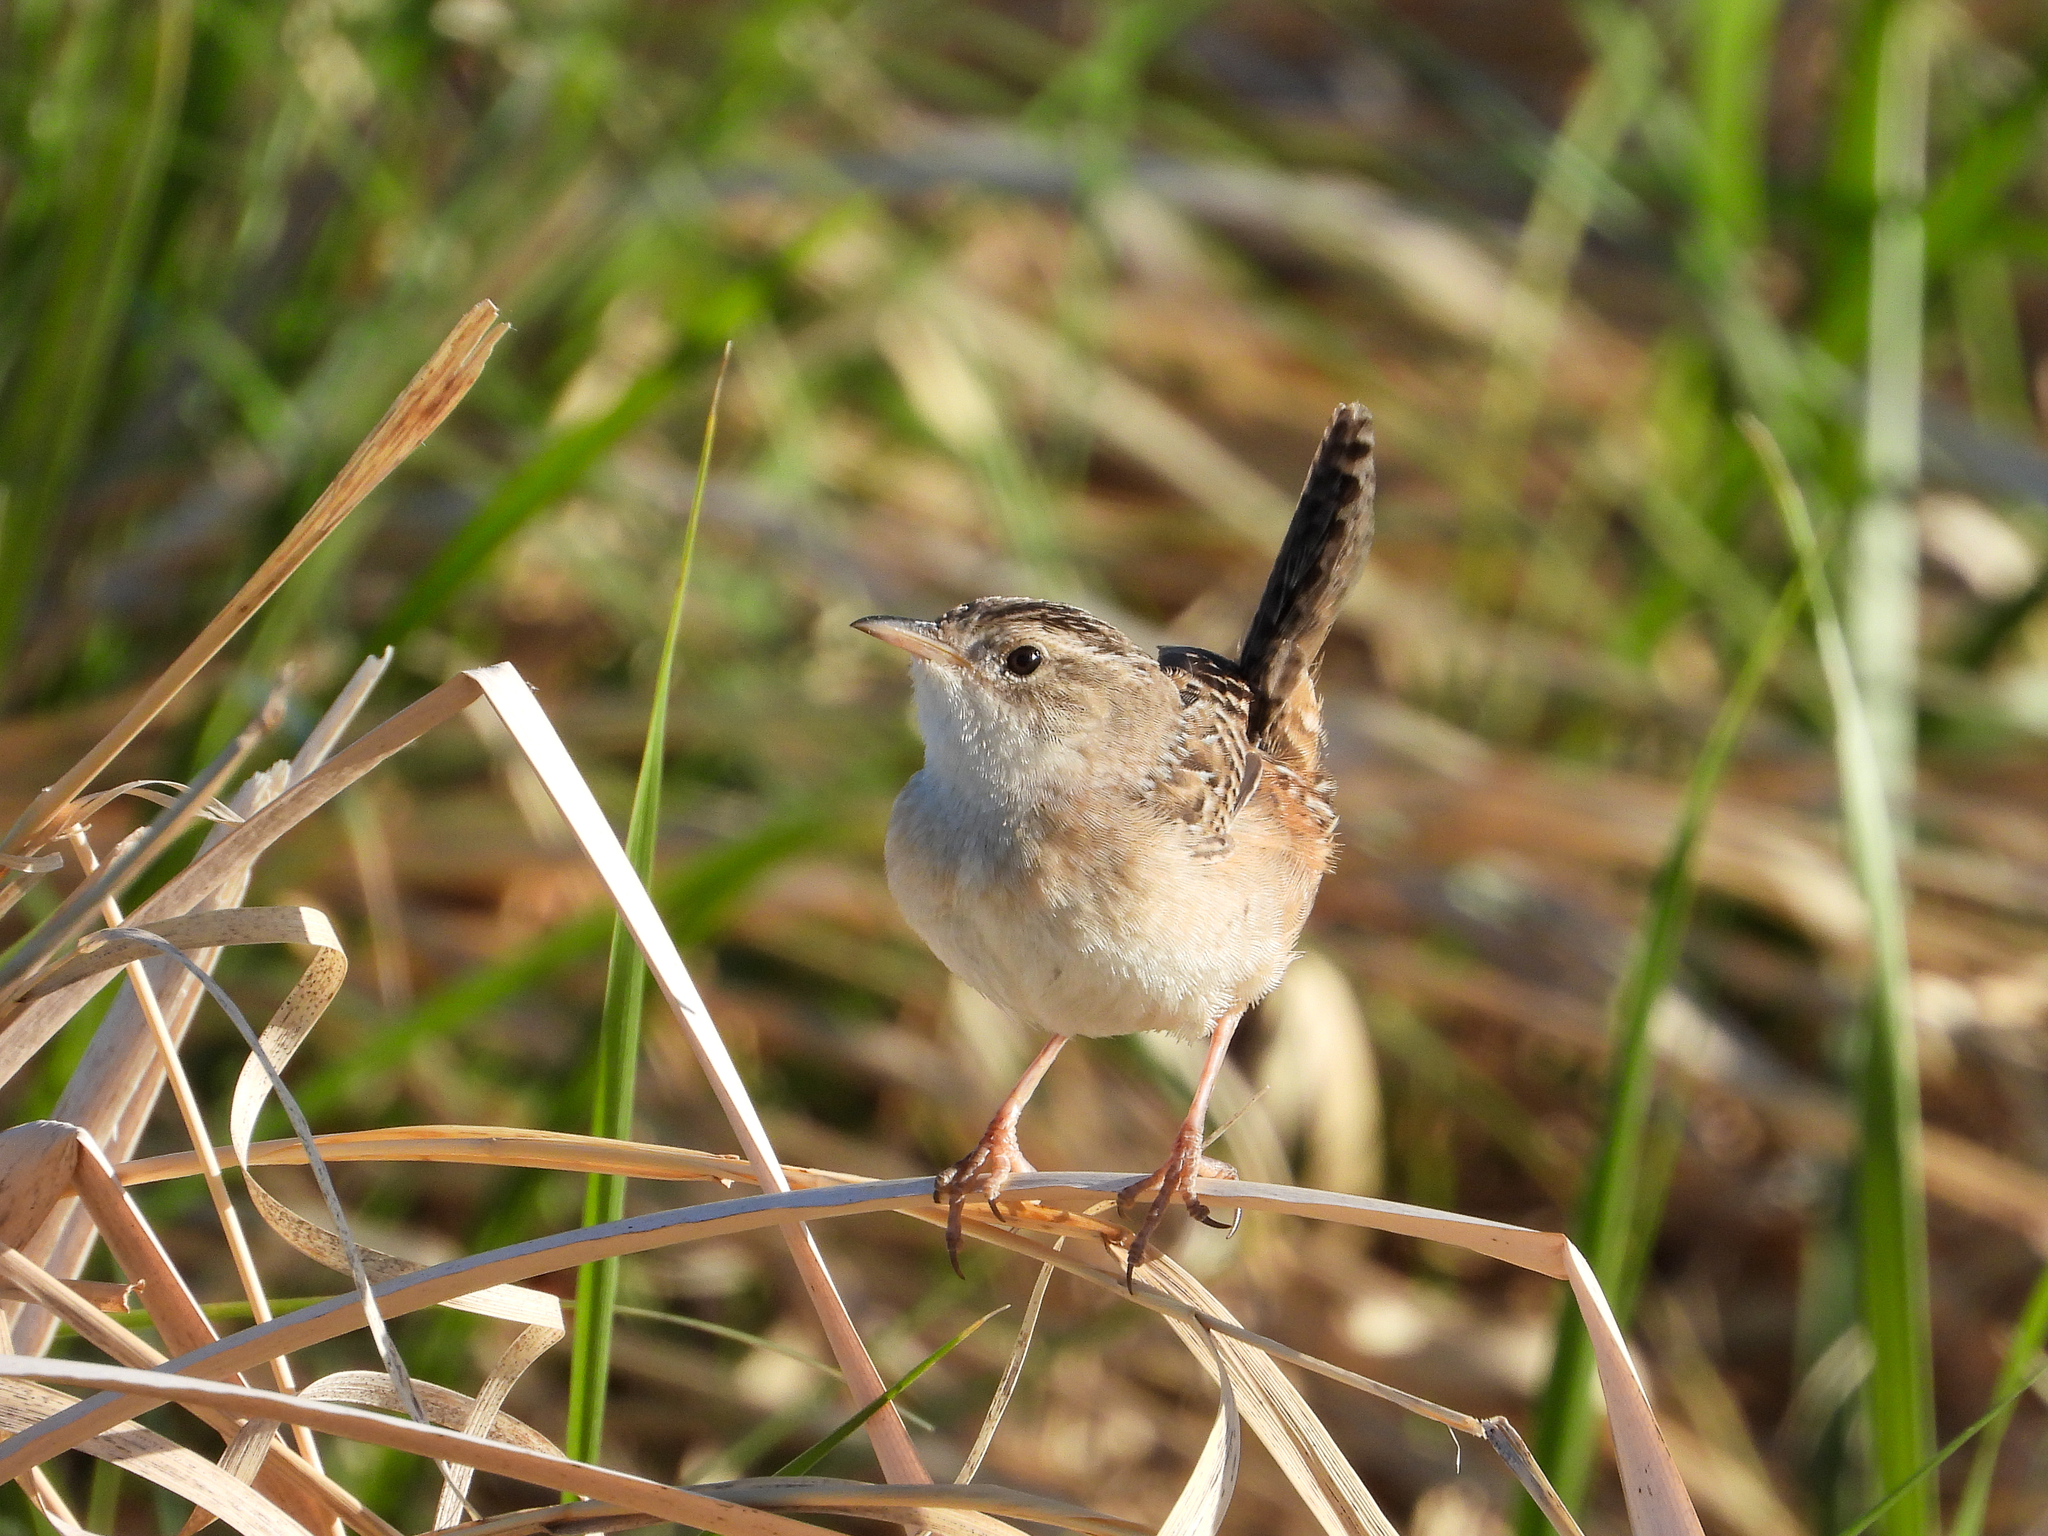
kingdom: Animalia
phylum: Chordata
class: Aves
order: Passeriformes
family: Troglodytidae
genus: Cistothorus
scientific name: Cistothorus platensis
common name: Sedge wren
